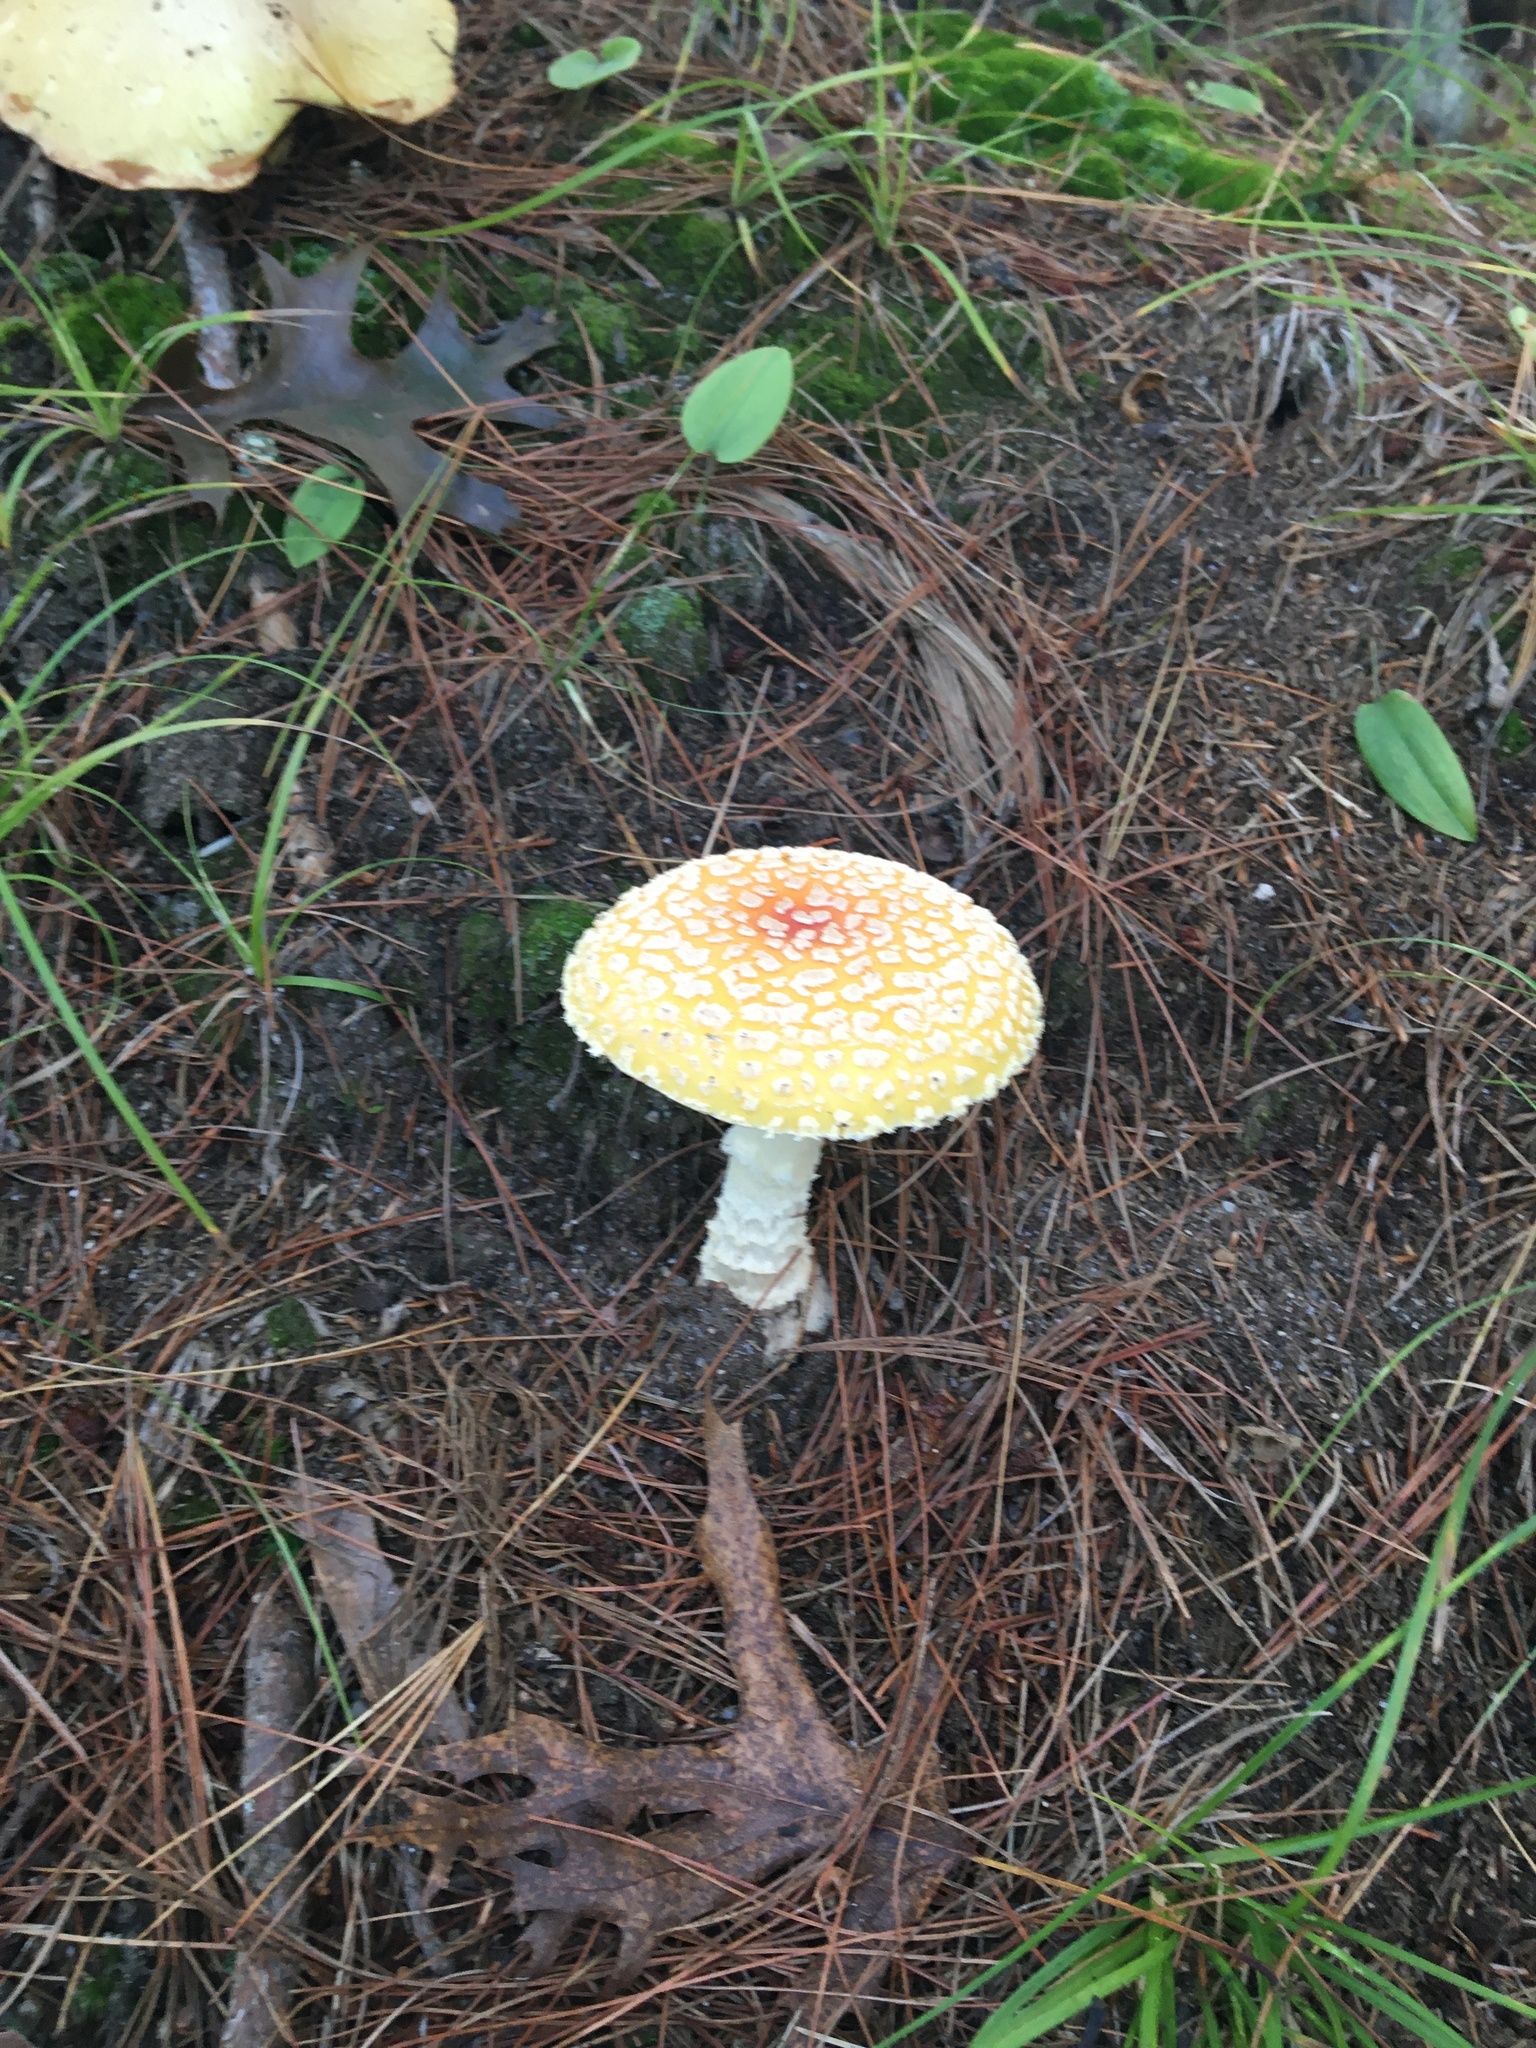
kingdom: Fungi
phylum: Basidiomycota
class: Agaricomycetes
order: Agaricales
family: Amanitaceae
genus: Amanita
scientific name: Amanita muscaria
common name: Fly agaric
